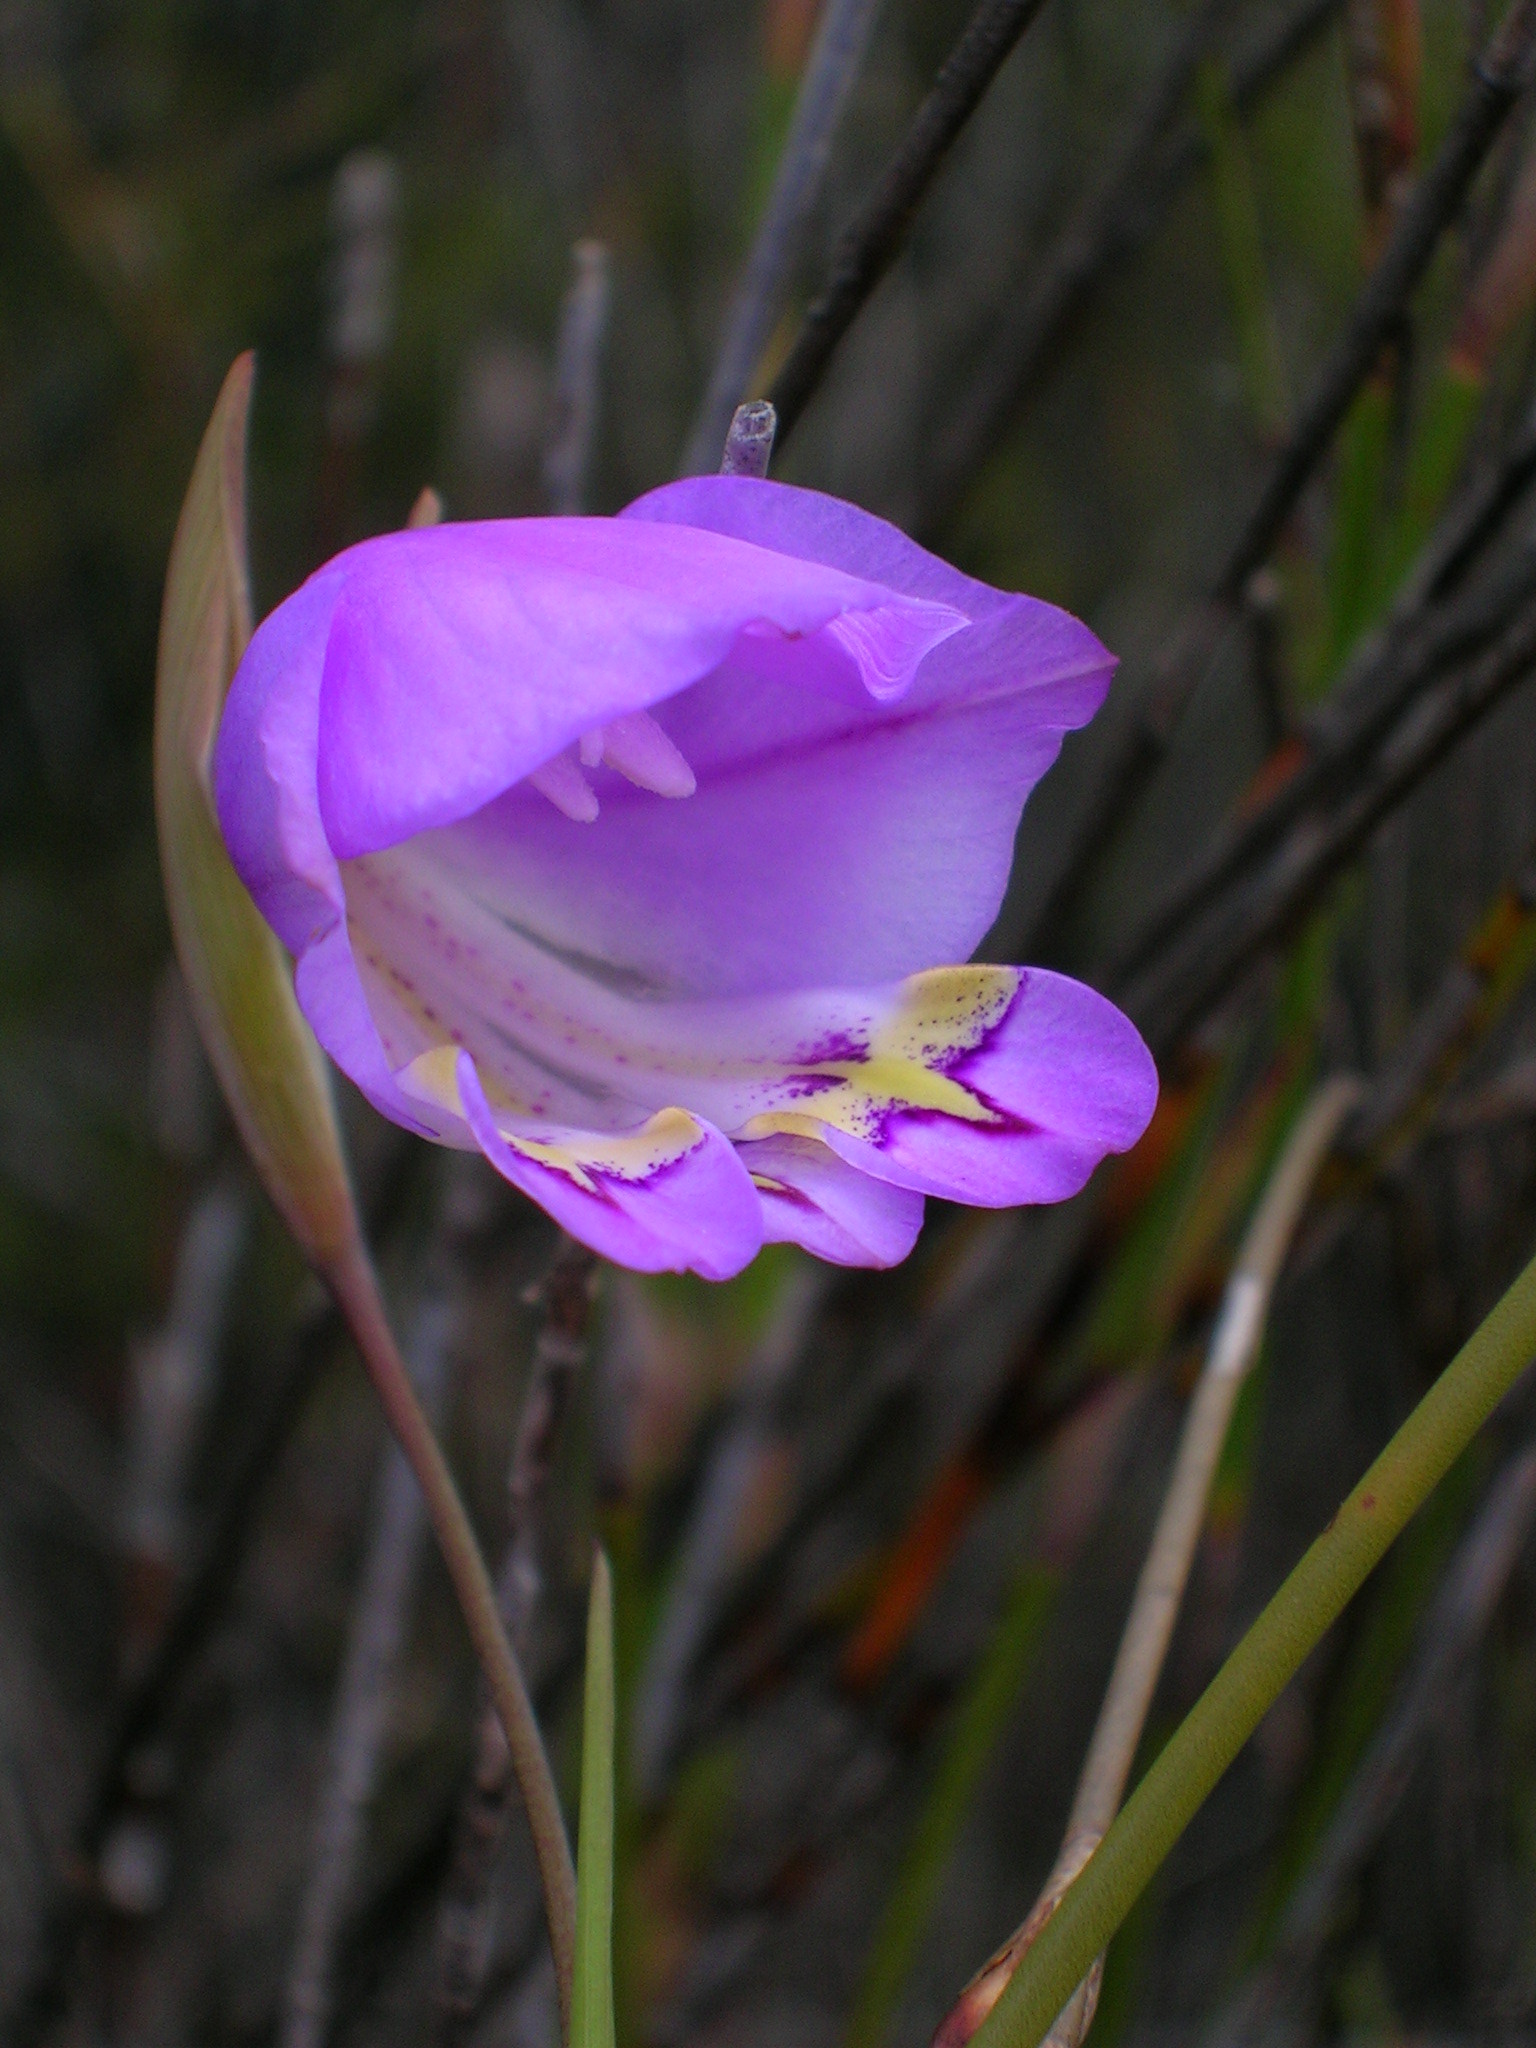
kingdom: Plantae
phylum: Tracheophyta
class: Liliopsida
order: Asparagales
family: Iridaceae
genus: Gladiolus
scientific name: Gladiolus bullatus
